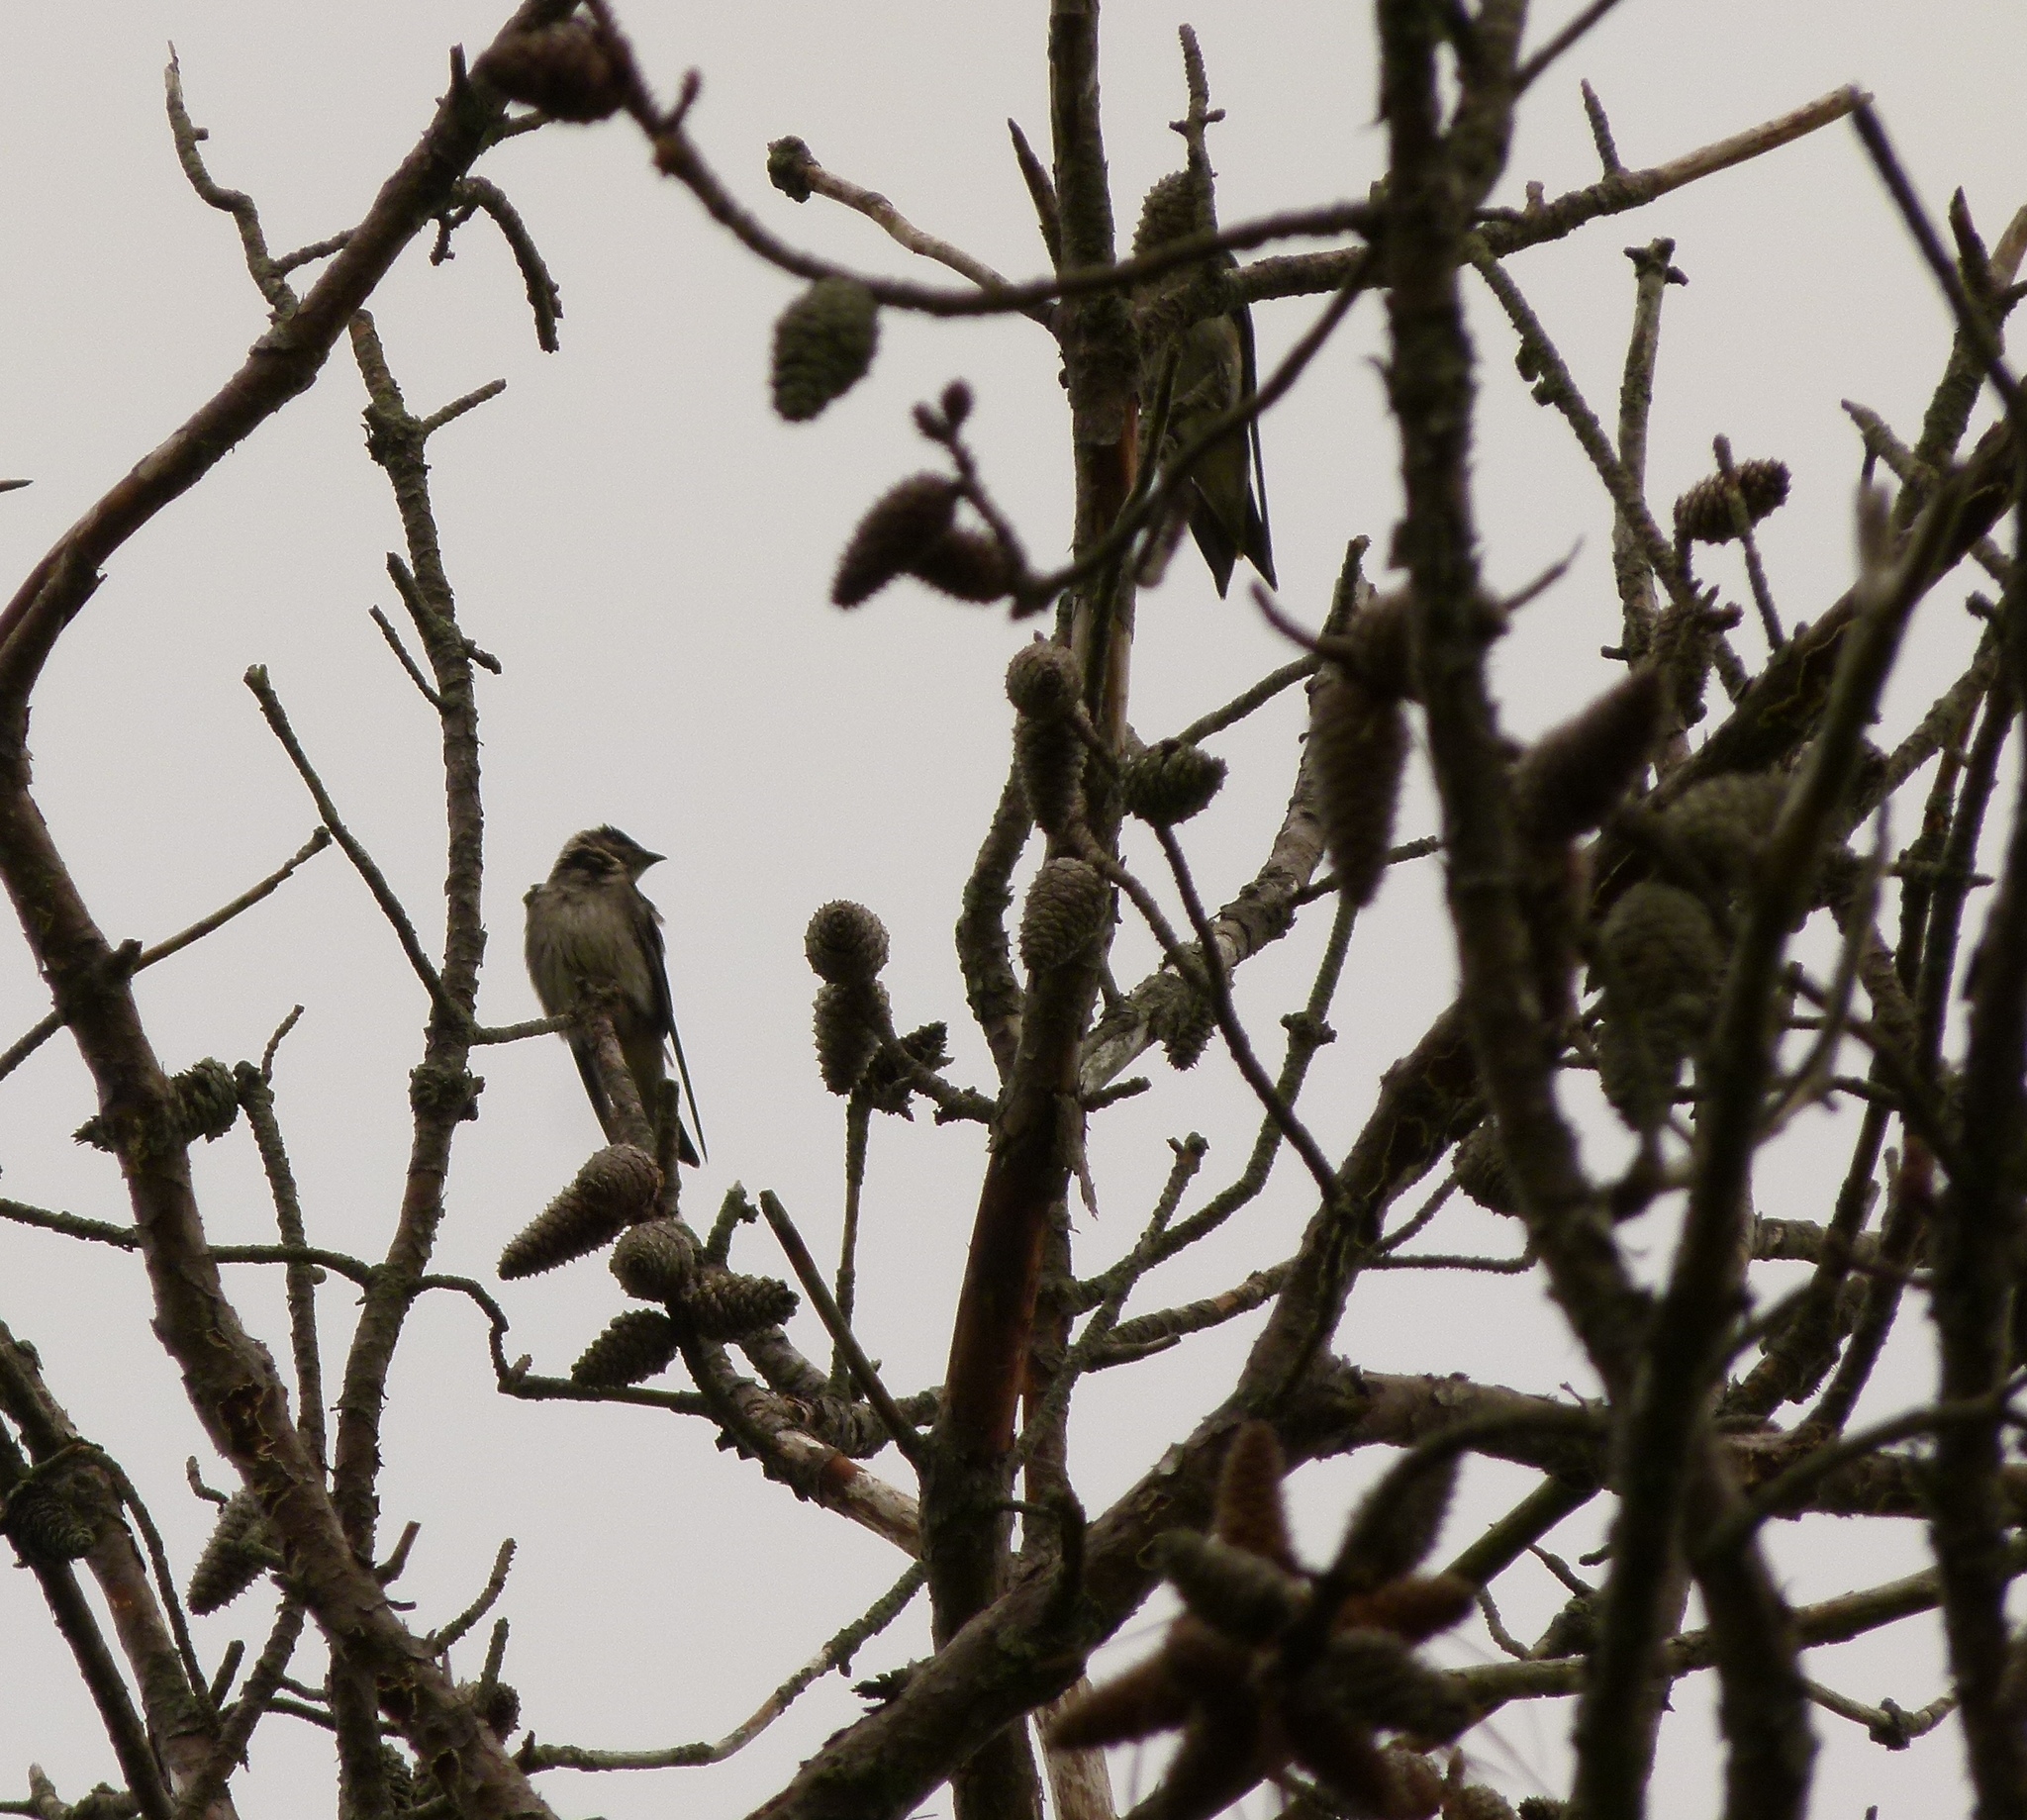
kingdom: Animalia
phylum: Chordata
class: Aves
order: Passeriformes
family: Hirundinidae
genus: Progne
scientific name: Progne subis
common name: Purple martin
